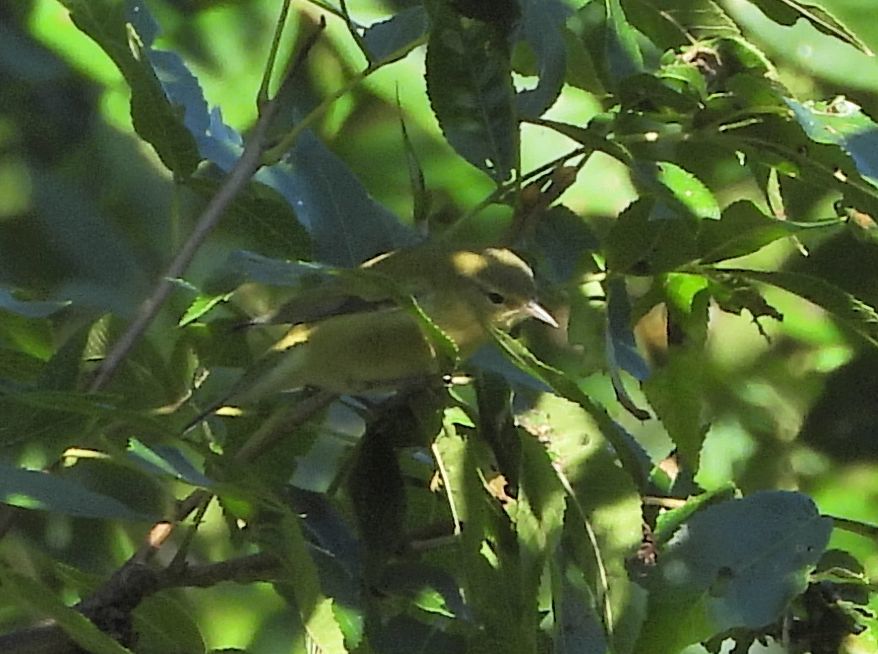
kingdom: Animalia
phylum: Chordata
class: Aves
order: Passeriformes
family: Parulidae
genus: Leiothlypis
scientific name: Leiothlypis peregrina
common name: Tennessee warbler
